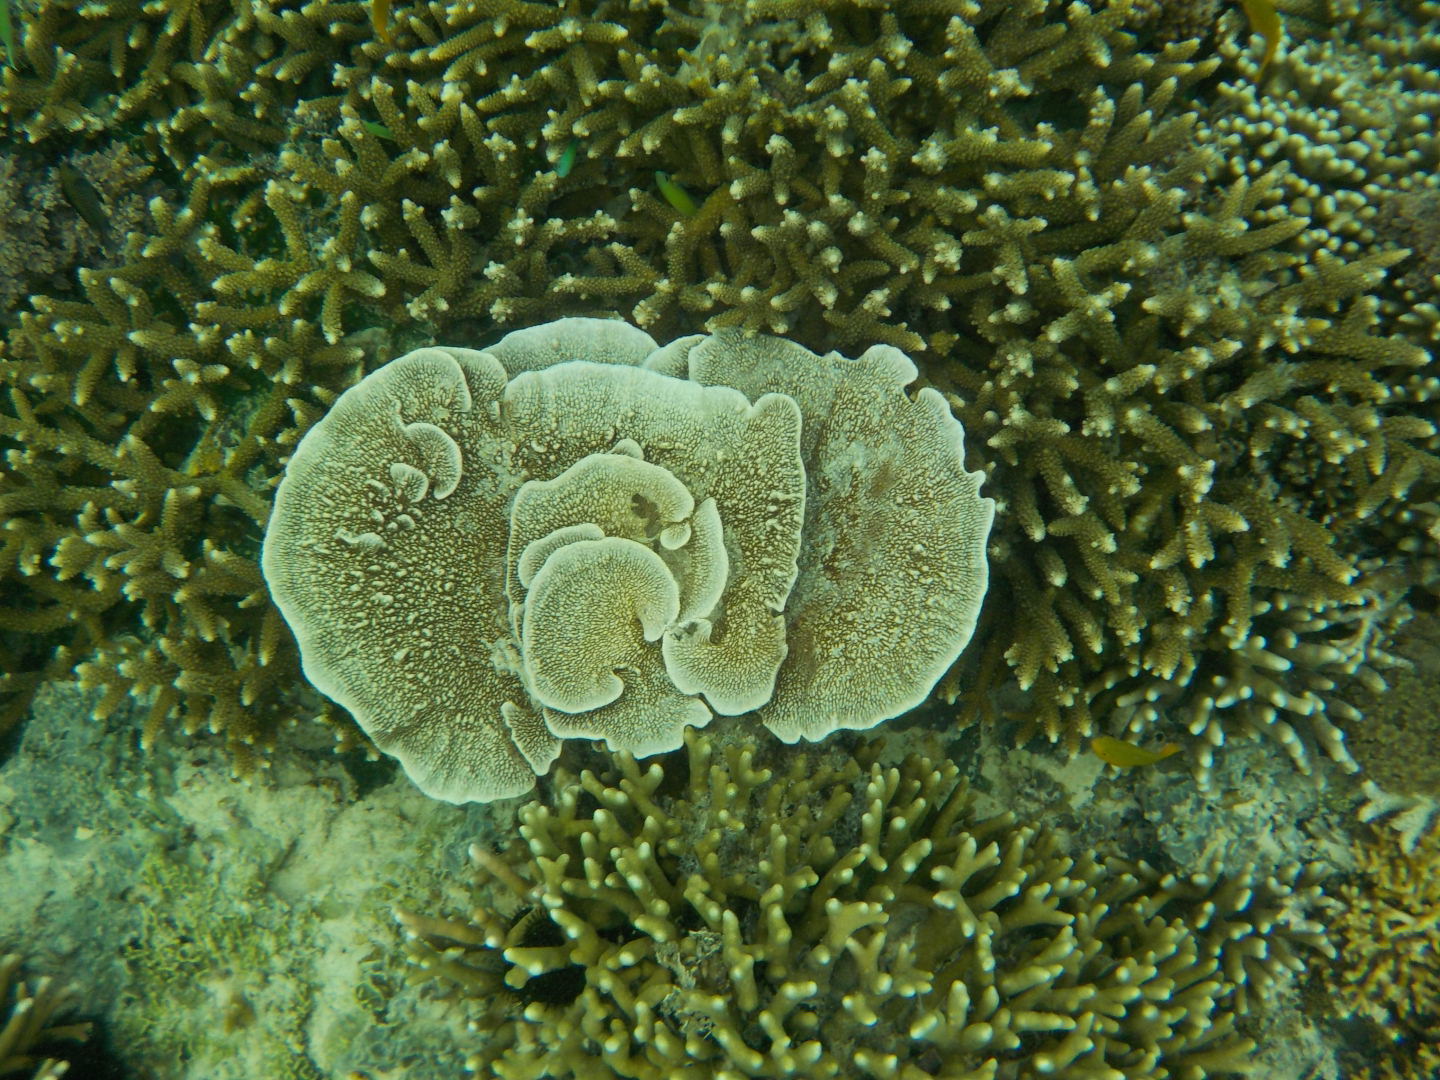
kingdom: Animalia
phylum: Porifera
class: Demospongiae
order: Dictyoceratida
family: Thorectidae
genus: Phyllospongia
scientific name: Phyllospongia foliascens
